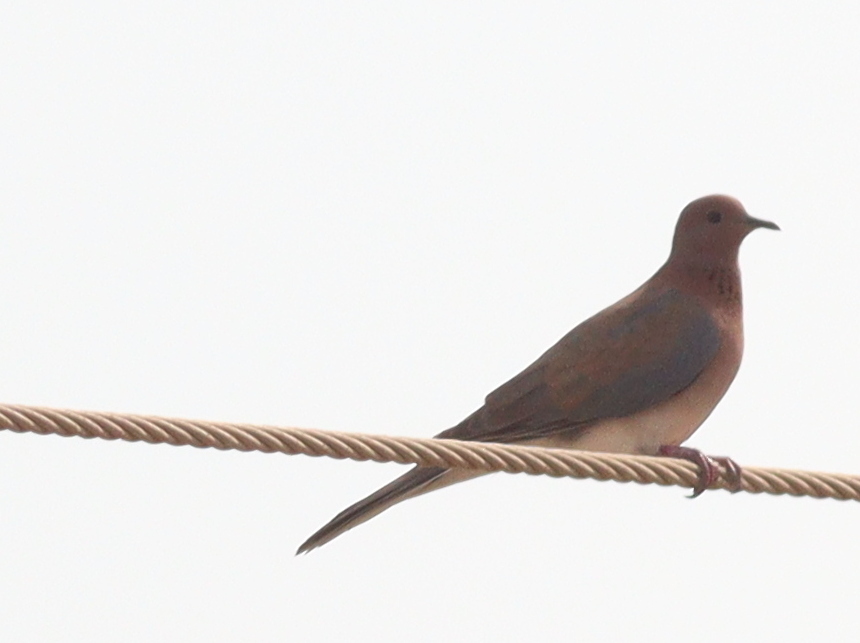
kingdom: Animalia
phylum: Chordata
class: Aves
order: Columbiformes
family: Columbidae
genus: Spilopelia
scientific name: Spilopelia senegalensis
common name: Laughing dove
